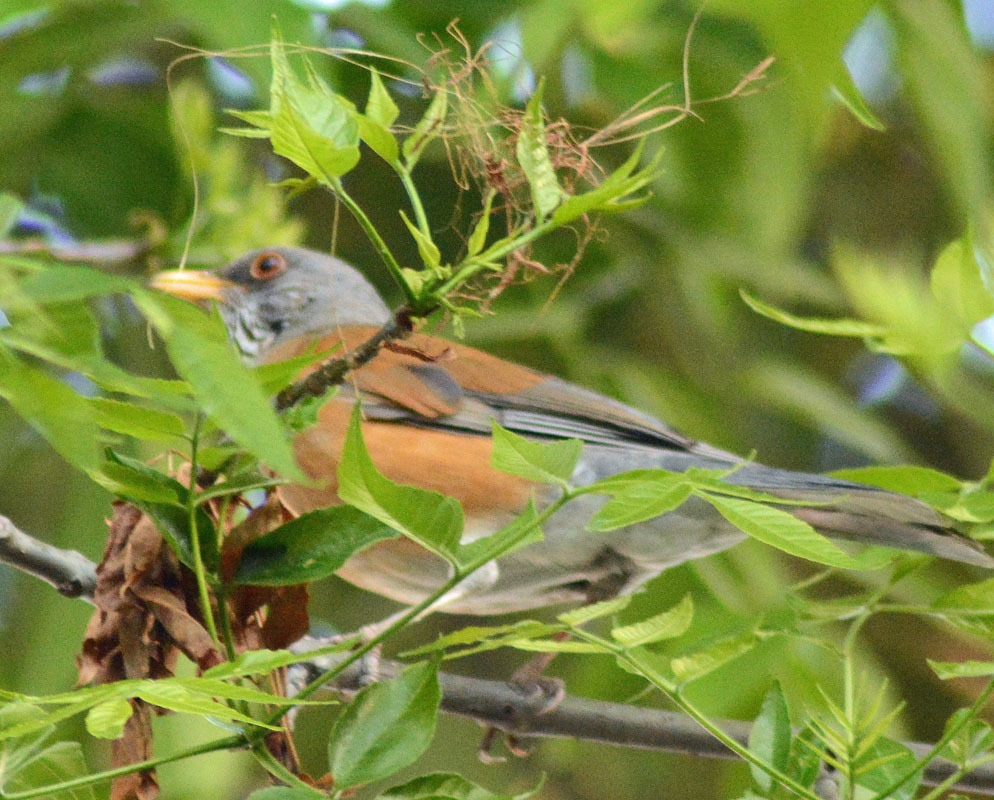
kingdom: Animalia
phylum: Chordata
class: Aves
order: Passeriformes
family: Turdidae
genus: Turdus
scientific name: Turdus rufopalliatus
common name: Rufous-backed robin
